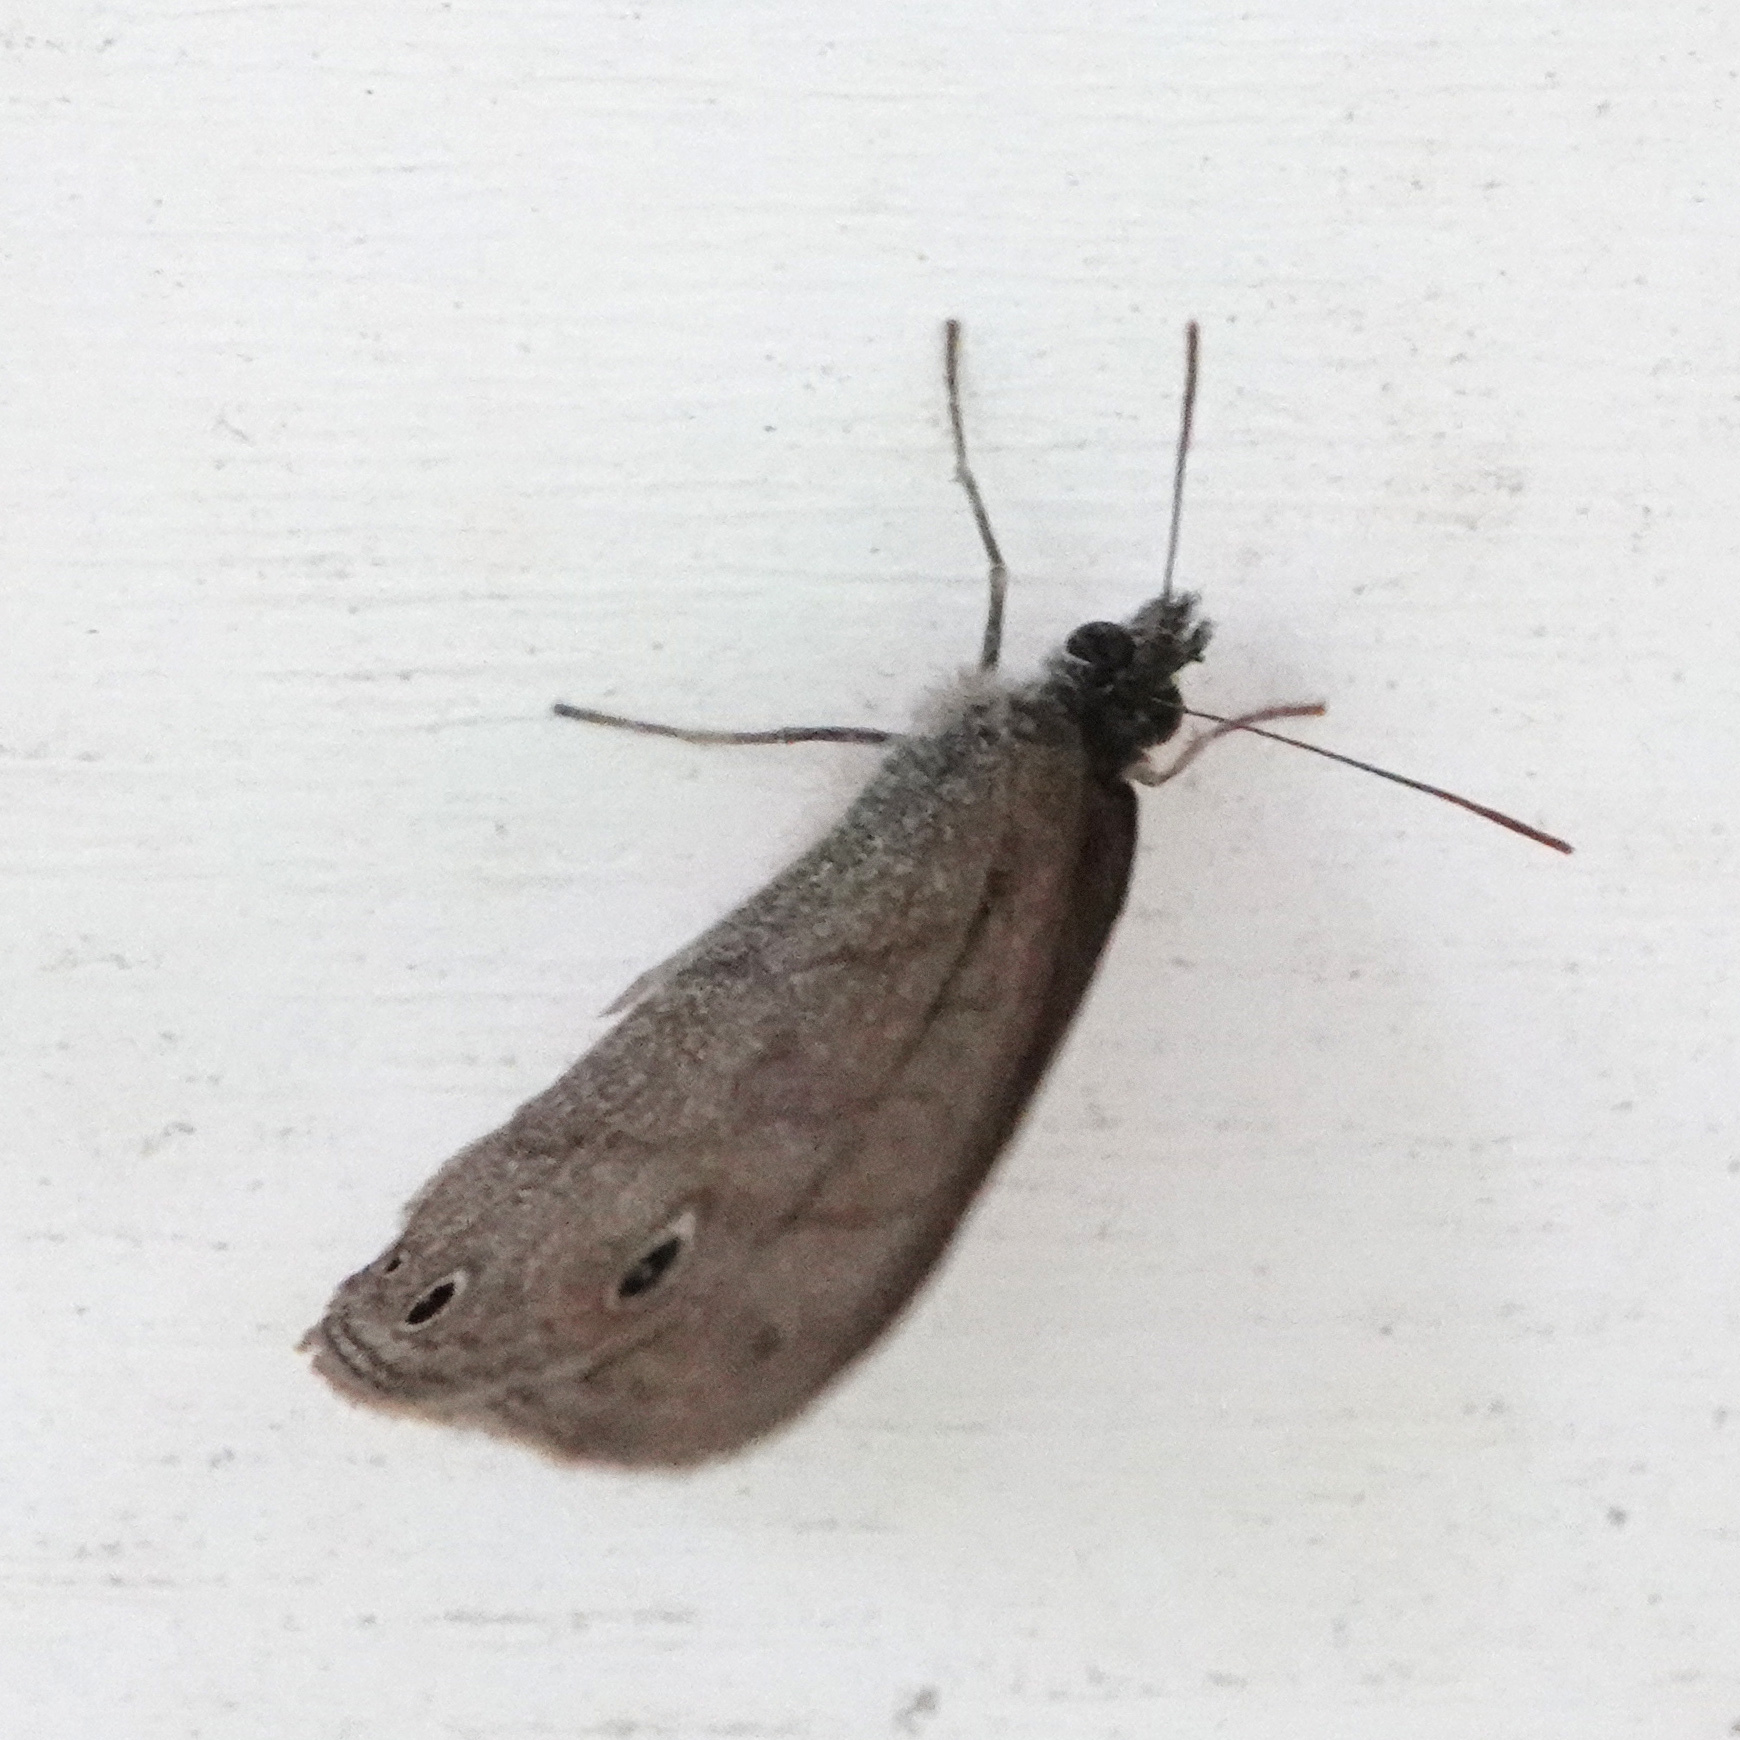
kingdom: Animalia
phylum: Arthropoda
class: Insecta
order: Lepidoptera
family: Nymphalidae
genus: Hermeuptychia
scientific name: Hermeuptychia hermes
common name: Hermes satyr
